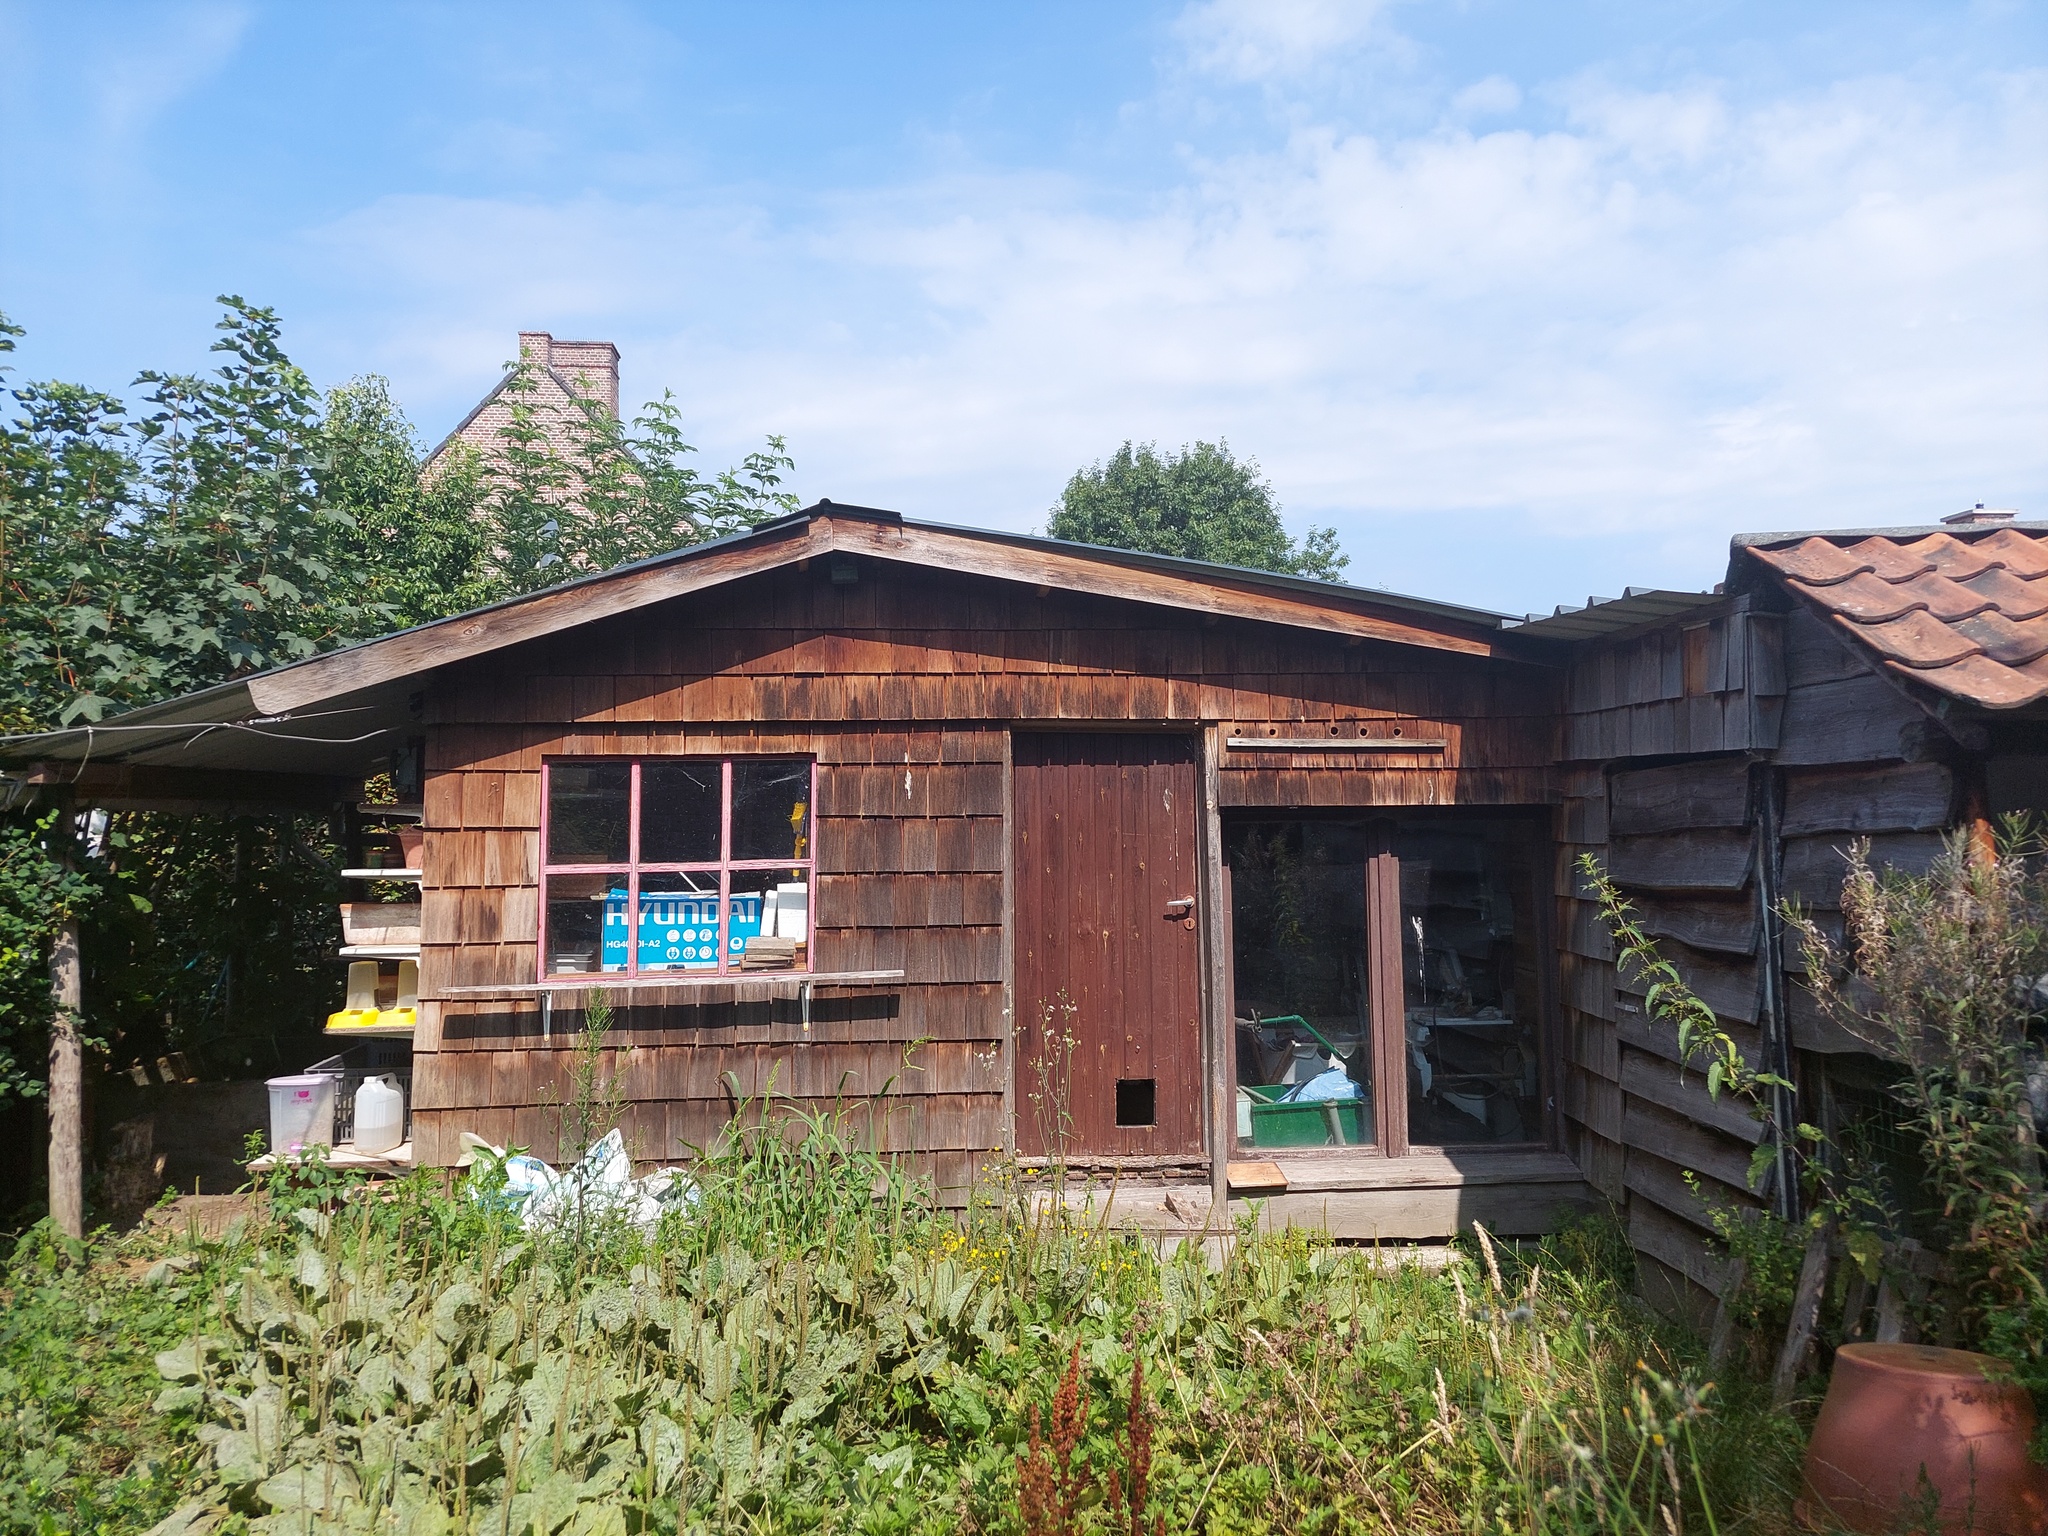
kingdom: Animalia
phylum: Arthropoda
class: Insecta
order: Hymenoptera
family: Vespidae
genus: Vespa
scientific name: Vespa velutina
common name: Asian hornet
